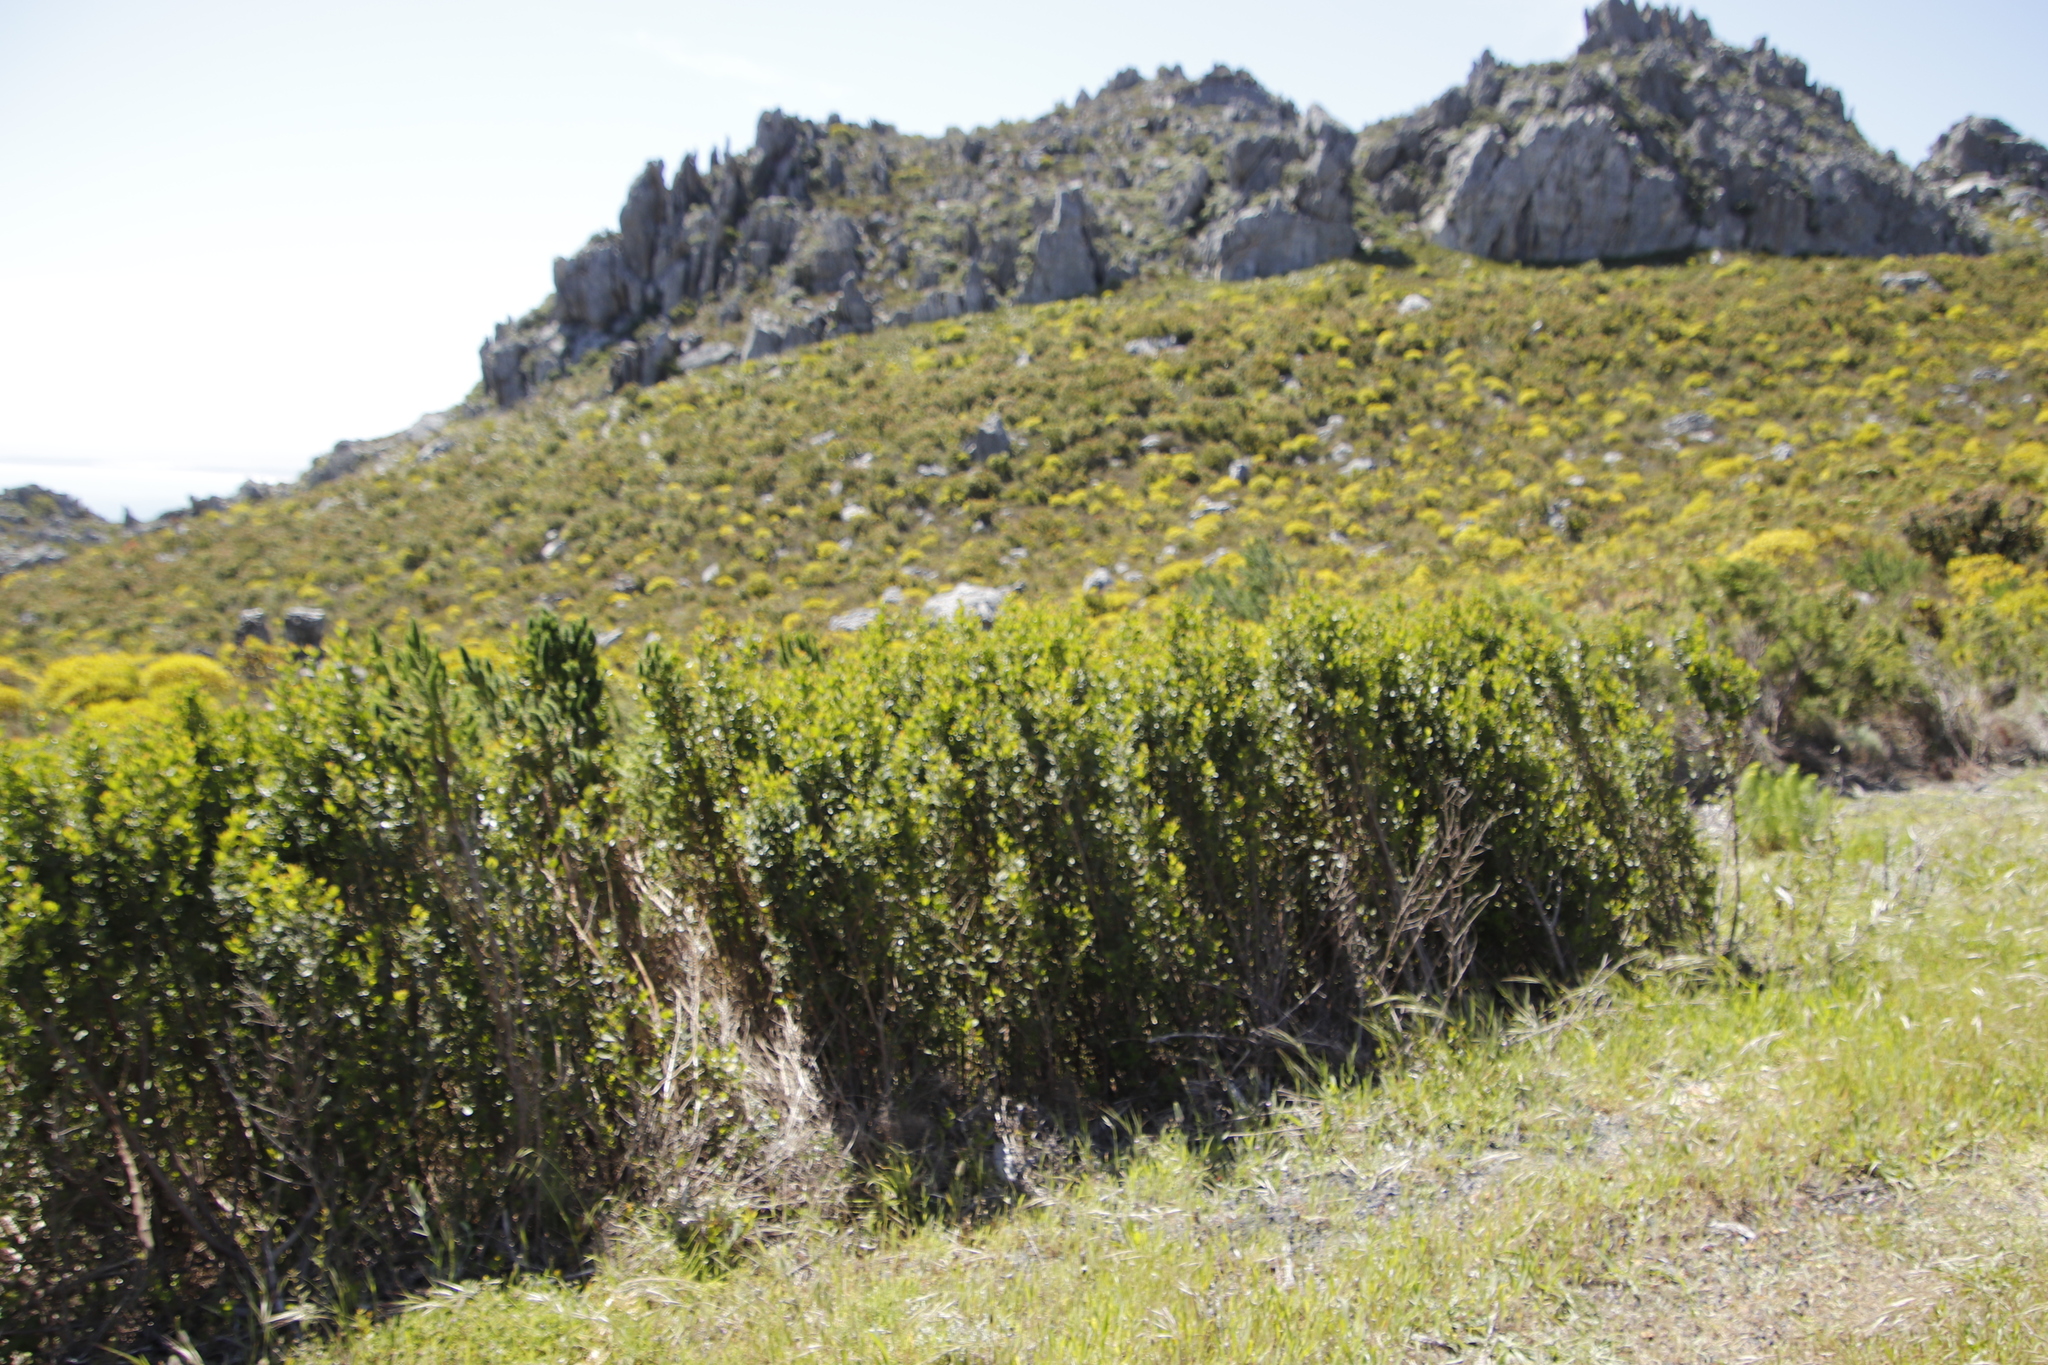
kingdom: Plantae
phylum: Tracheophyta
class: Magnoliopsida
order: Sapindales
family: Anacardiaceae
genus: Searsia
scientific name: Searsia lucida
